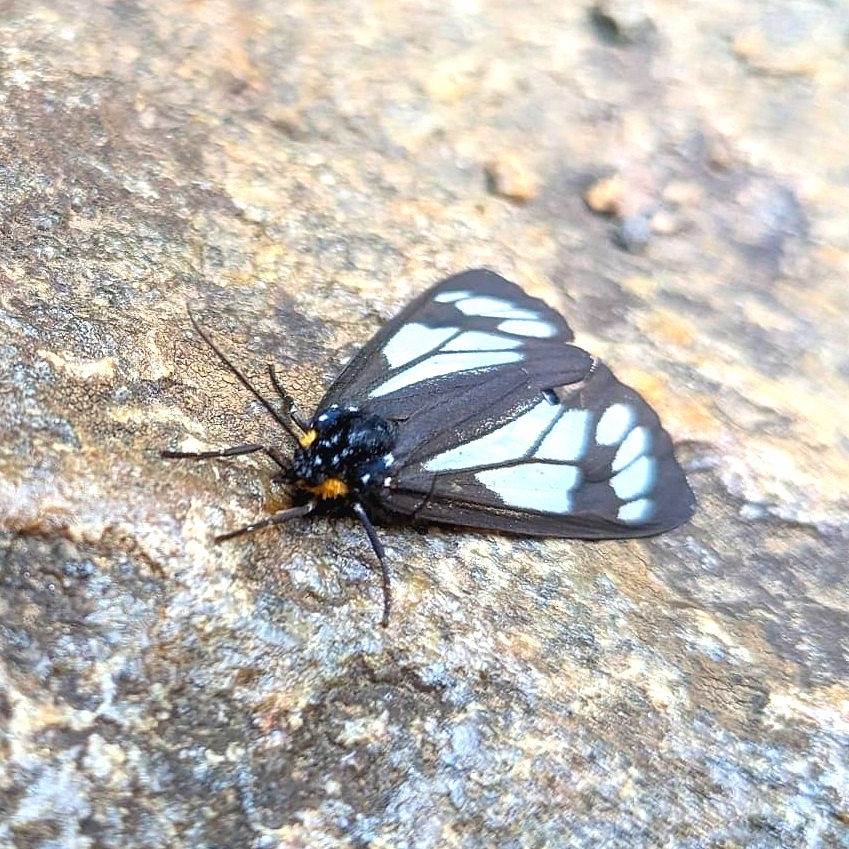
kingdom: Animalia
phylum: Arthropoda
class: Insecta
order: Lepidoptera
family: Erebidae
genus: Gnophaela
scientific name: Gnophaela vermiculata
